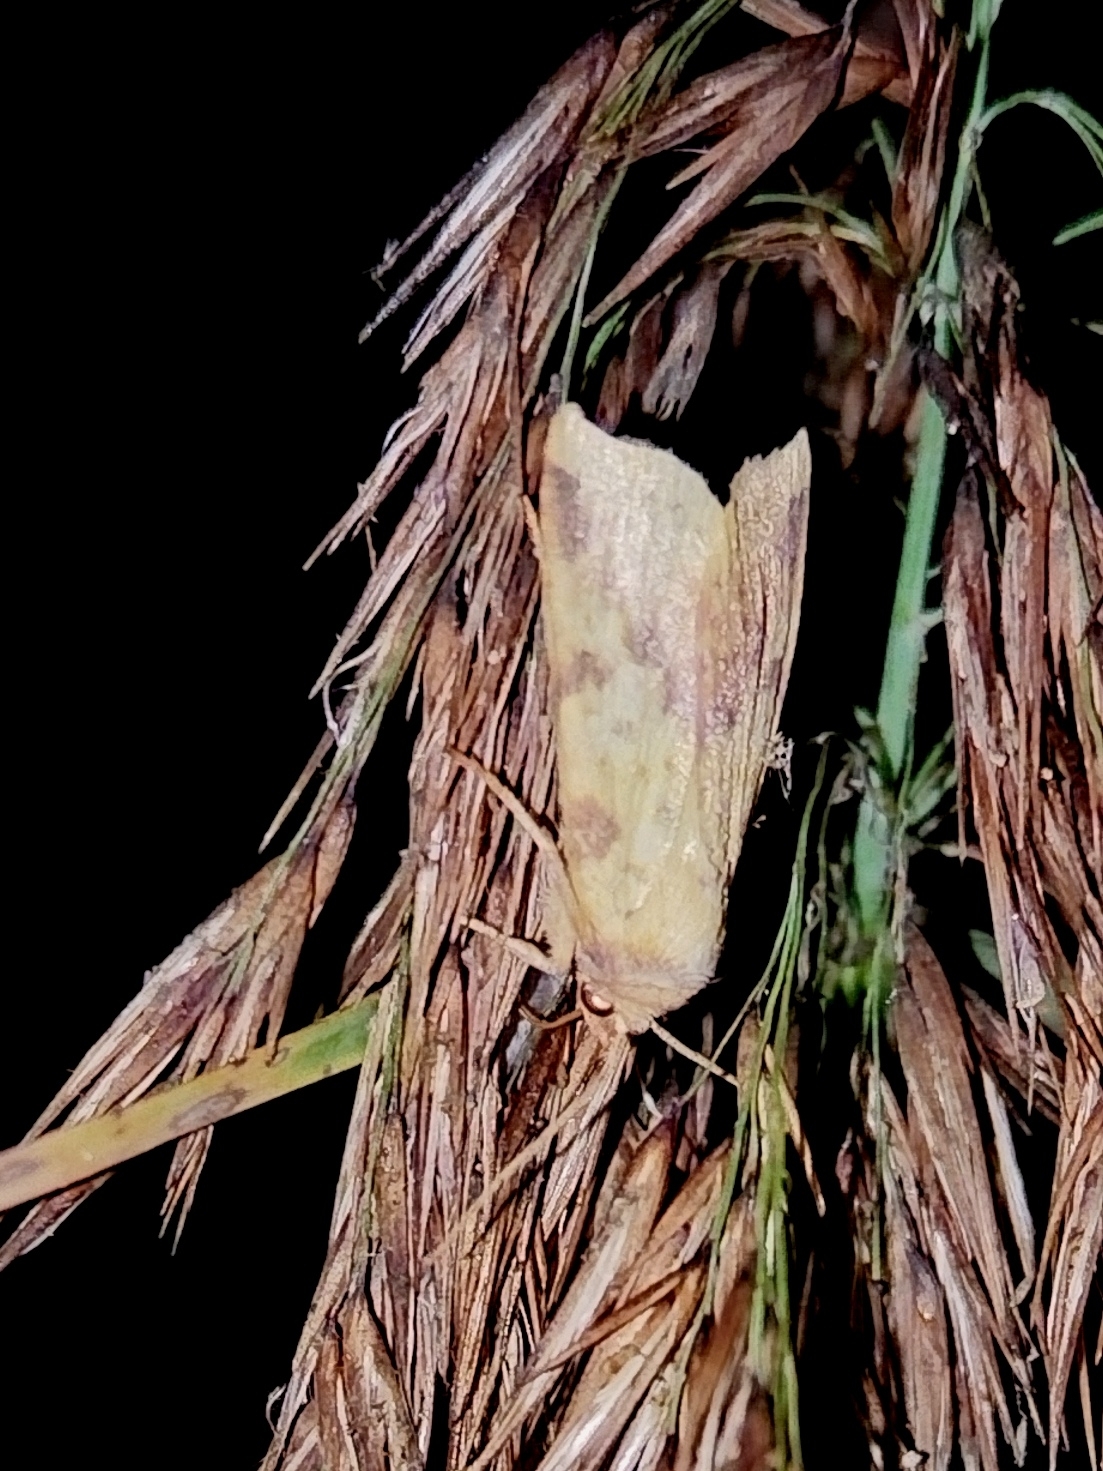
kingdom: Animalia
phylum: Arthropoda
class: Insecta
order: Lepidoptera
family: Noctuidae
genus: Xanthia
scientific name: Xanthia icteritia
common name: The sallow
